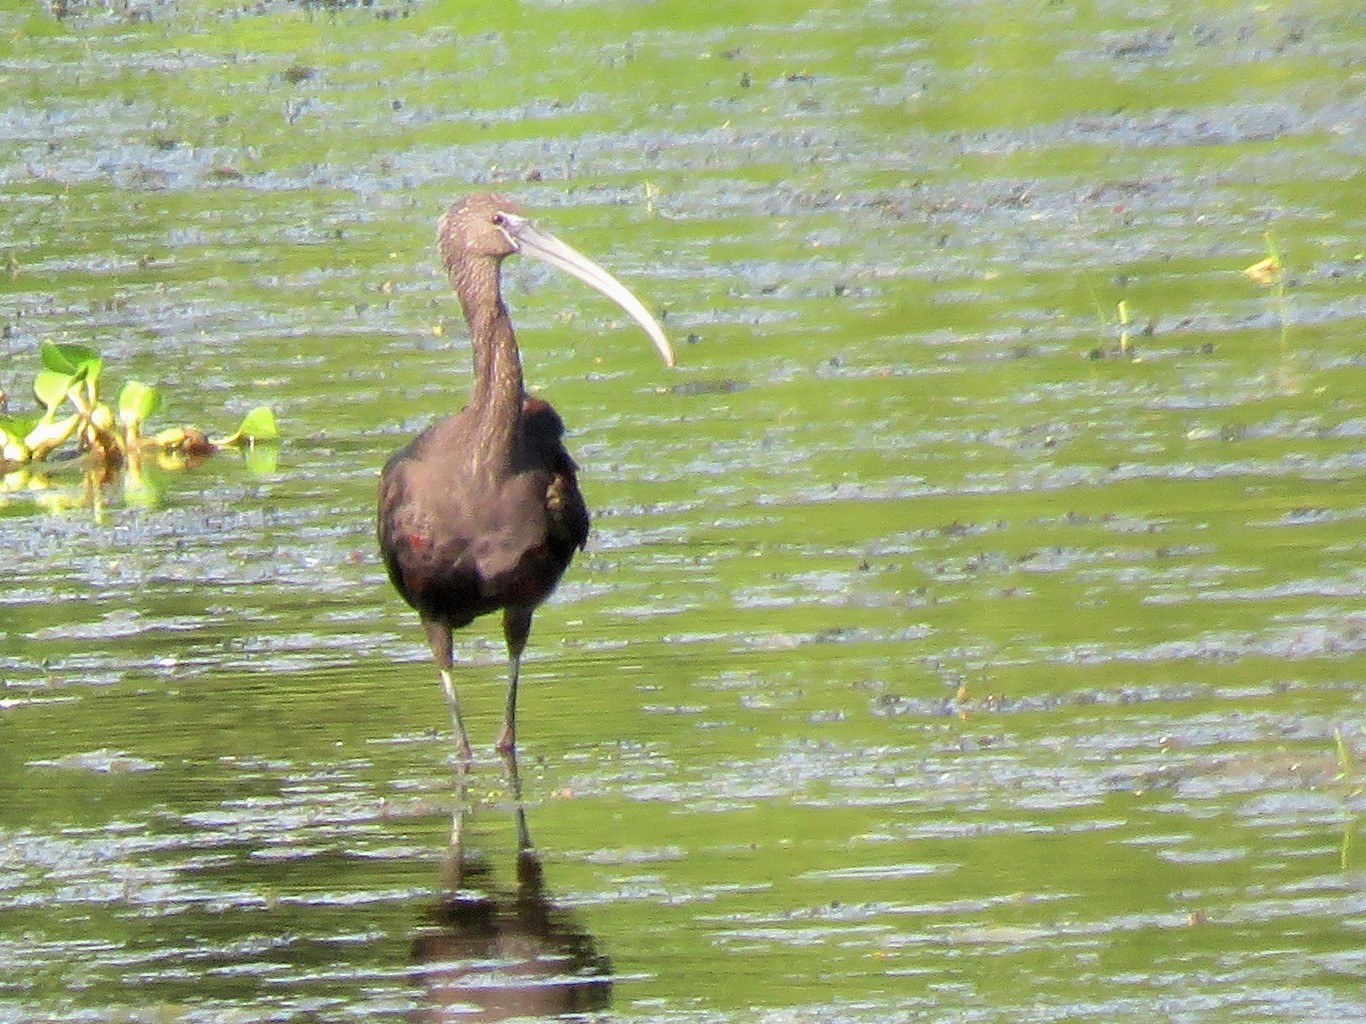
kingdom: Animalia
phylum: Chordata
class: Aves
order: Pelecaniformes
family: Threskiornithidae
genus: Plegadis
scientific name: Plegadis
